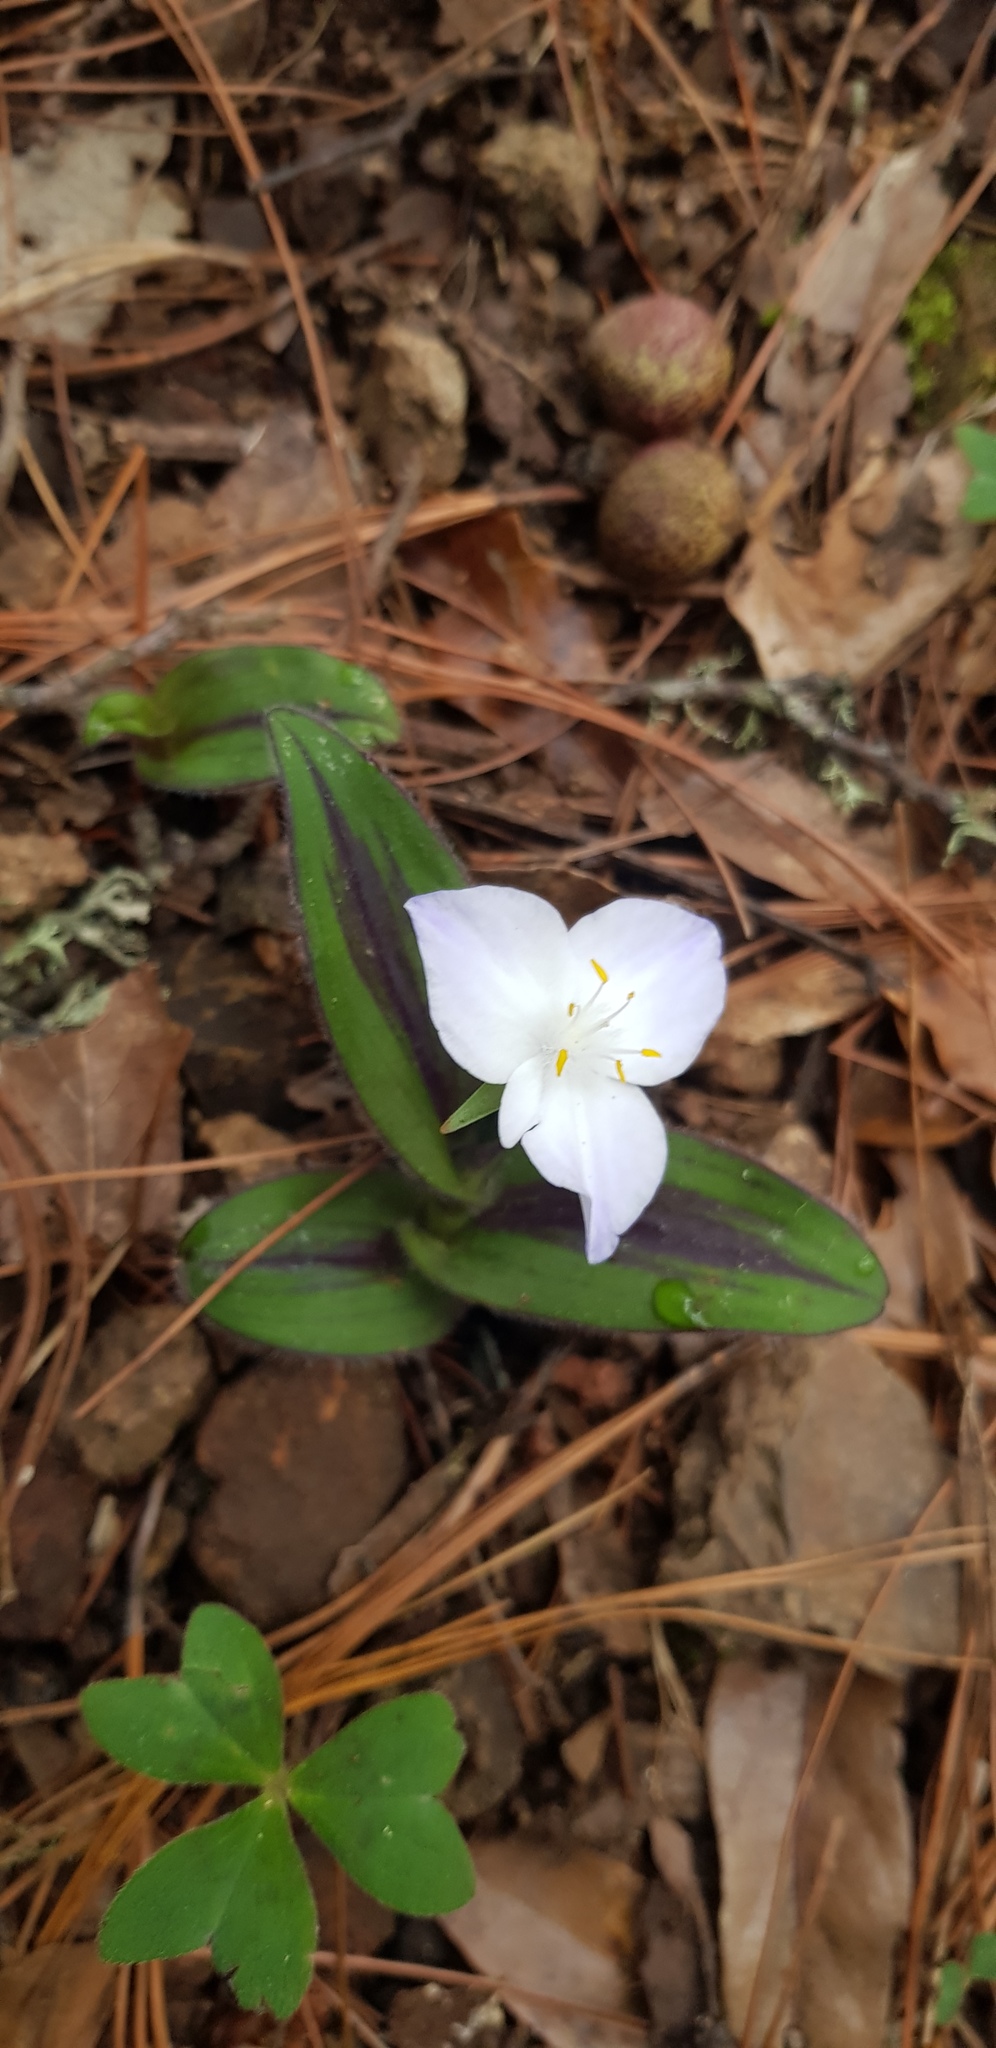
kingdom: Plantae
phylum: Tracheophyta
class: Liliopsida
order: Commelinales
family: Commelinaceae
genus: Matudanthus
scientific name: Matudanthus nanus
